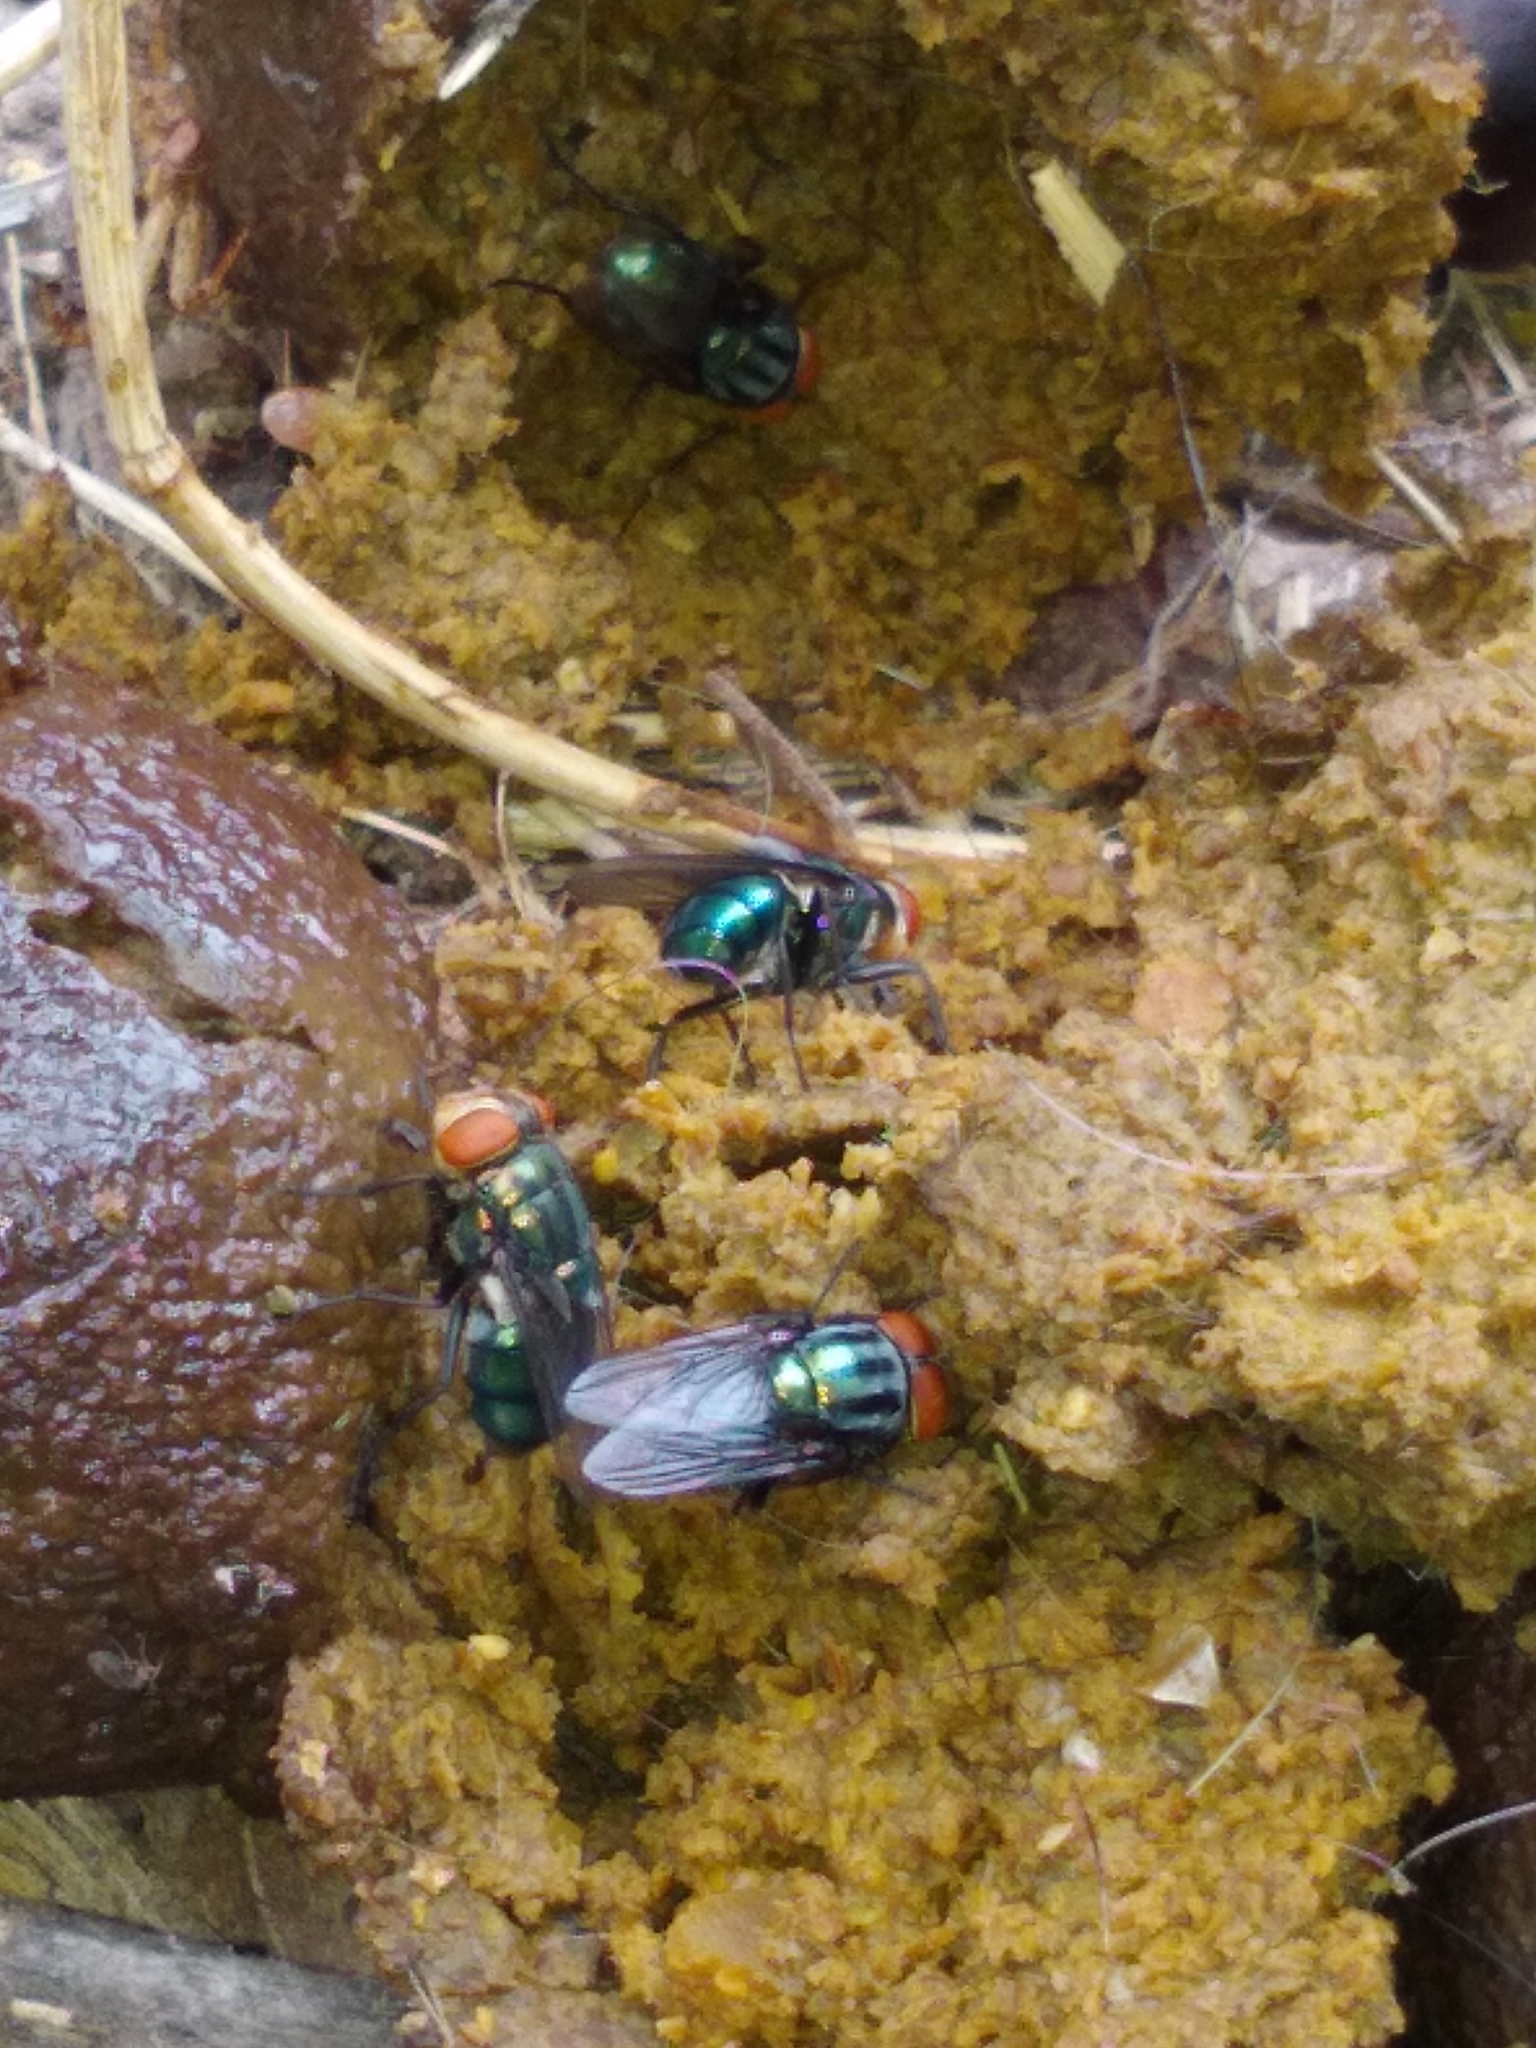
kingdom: Animalia
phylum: Arthropoda
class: Insecta
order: Diptera
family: Calliphoridae
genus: Cochliomyia
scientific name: Cochliomyia macellaria
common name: Secondary screwworm
